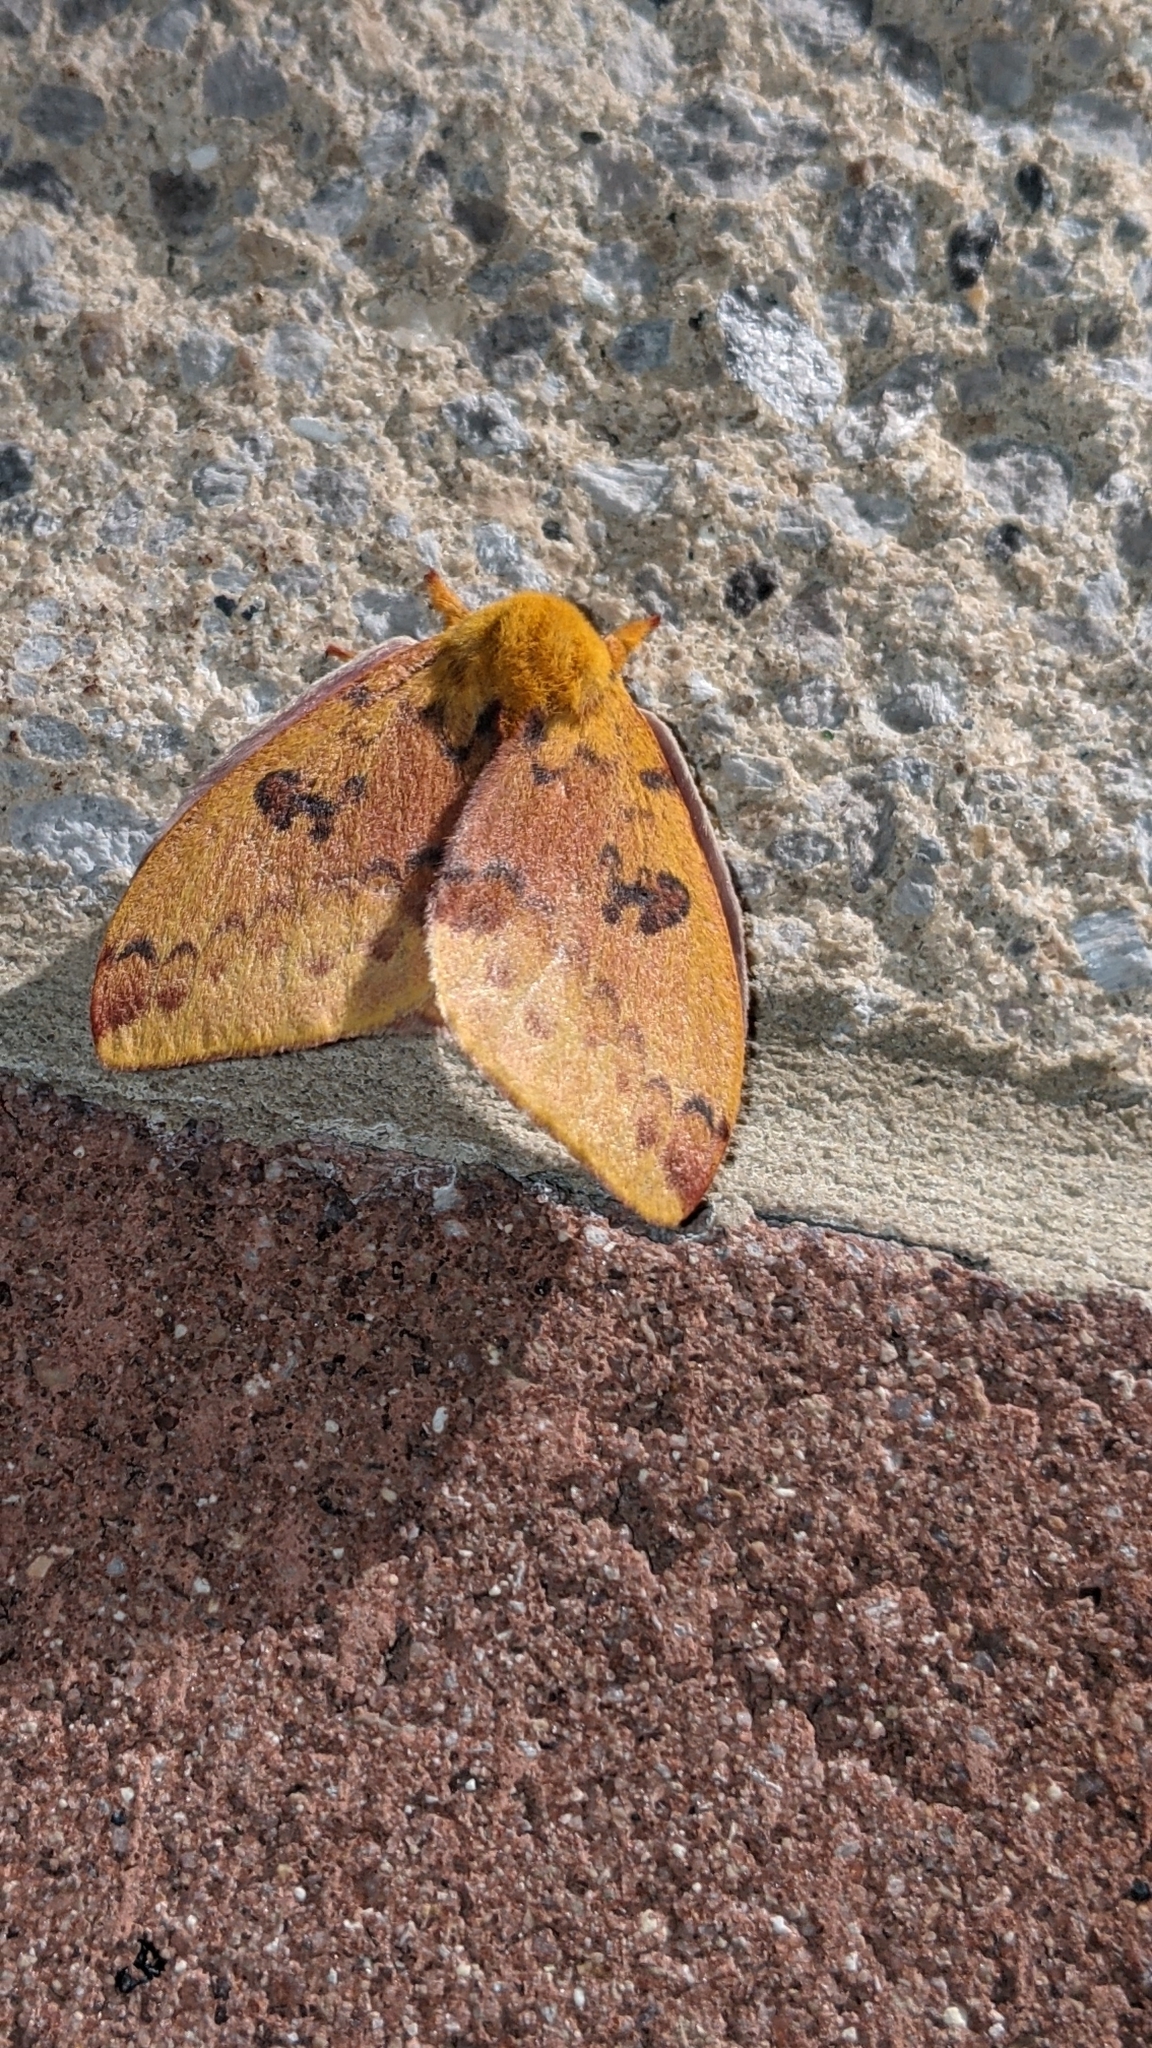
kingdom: Animalia
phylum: Arthropoda
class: Insecta
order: Lepidoptera
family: Saturniidae
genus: Automeris
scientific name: Automeris io
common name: Io moth
